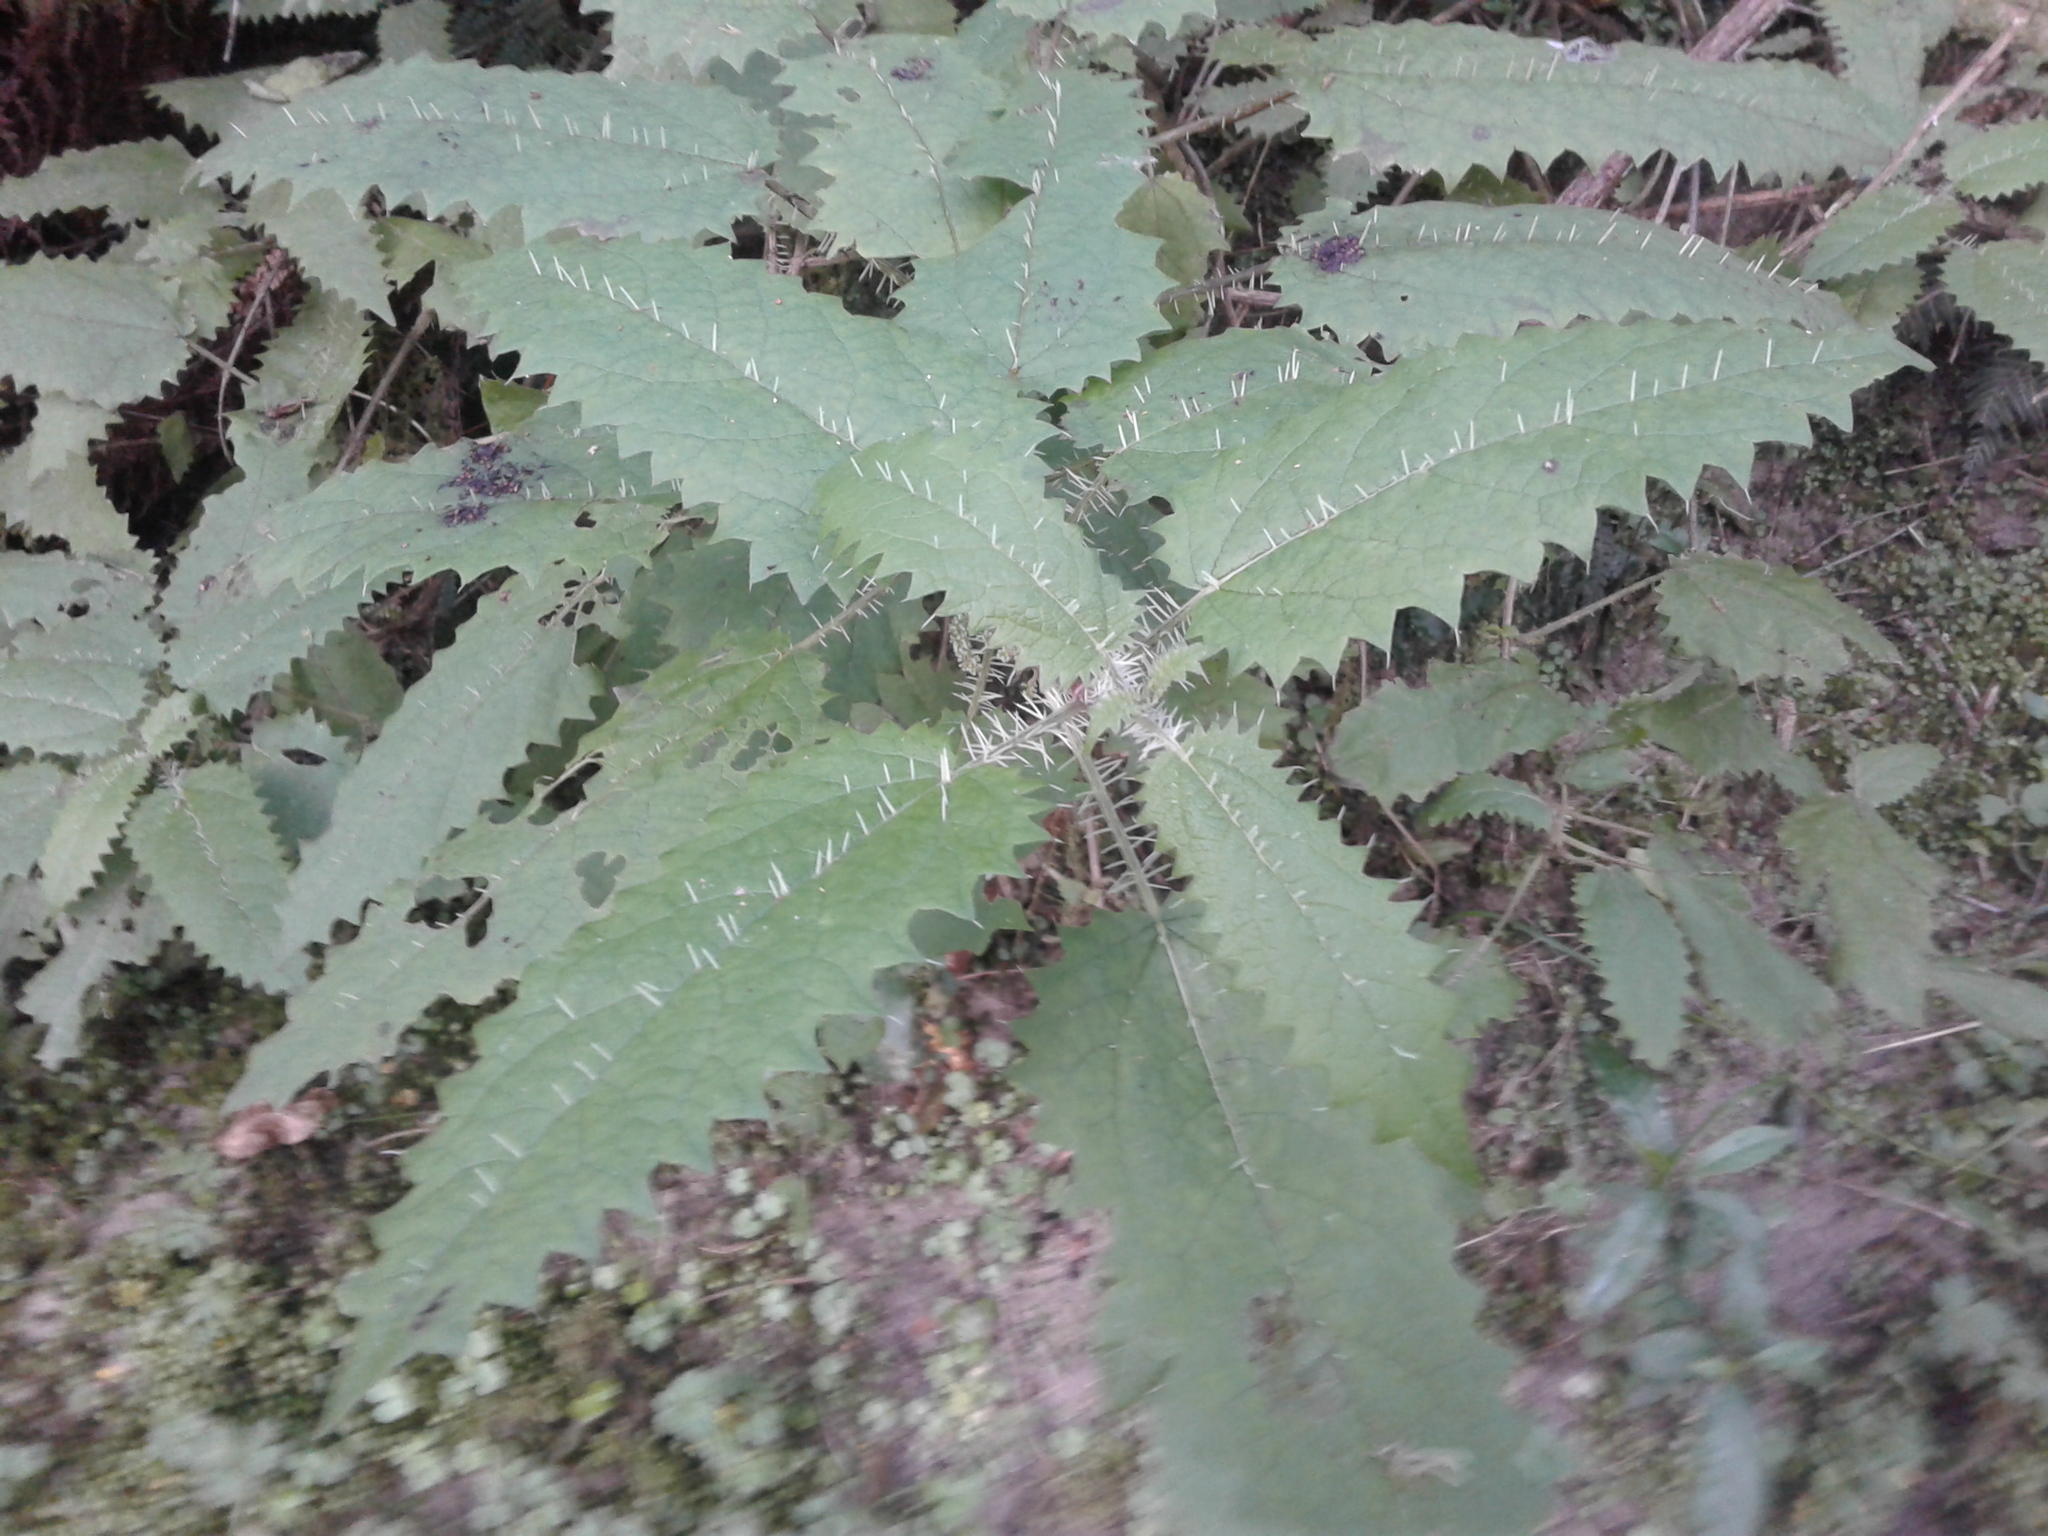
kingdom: Plantae
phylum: Tracheophyta
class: Magnoliopsida
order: Rosales
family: Urticaceae
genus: Urtica
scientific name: Urtica ferox
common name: Tree nettle
